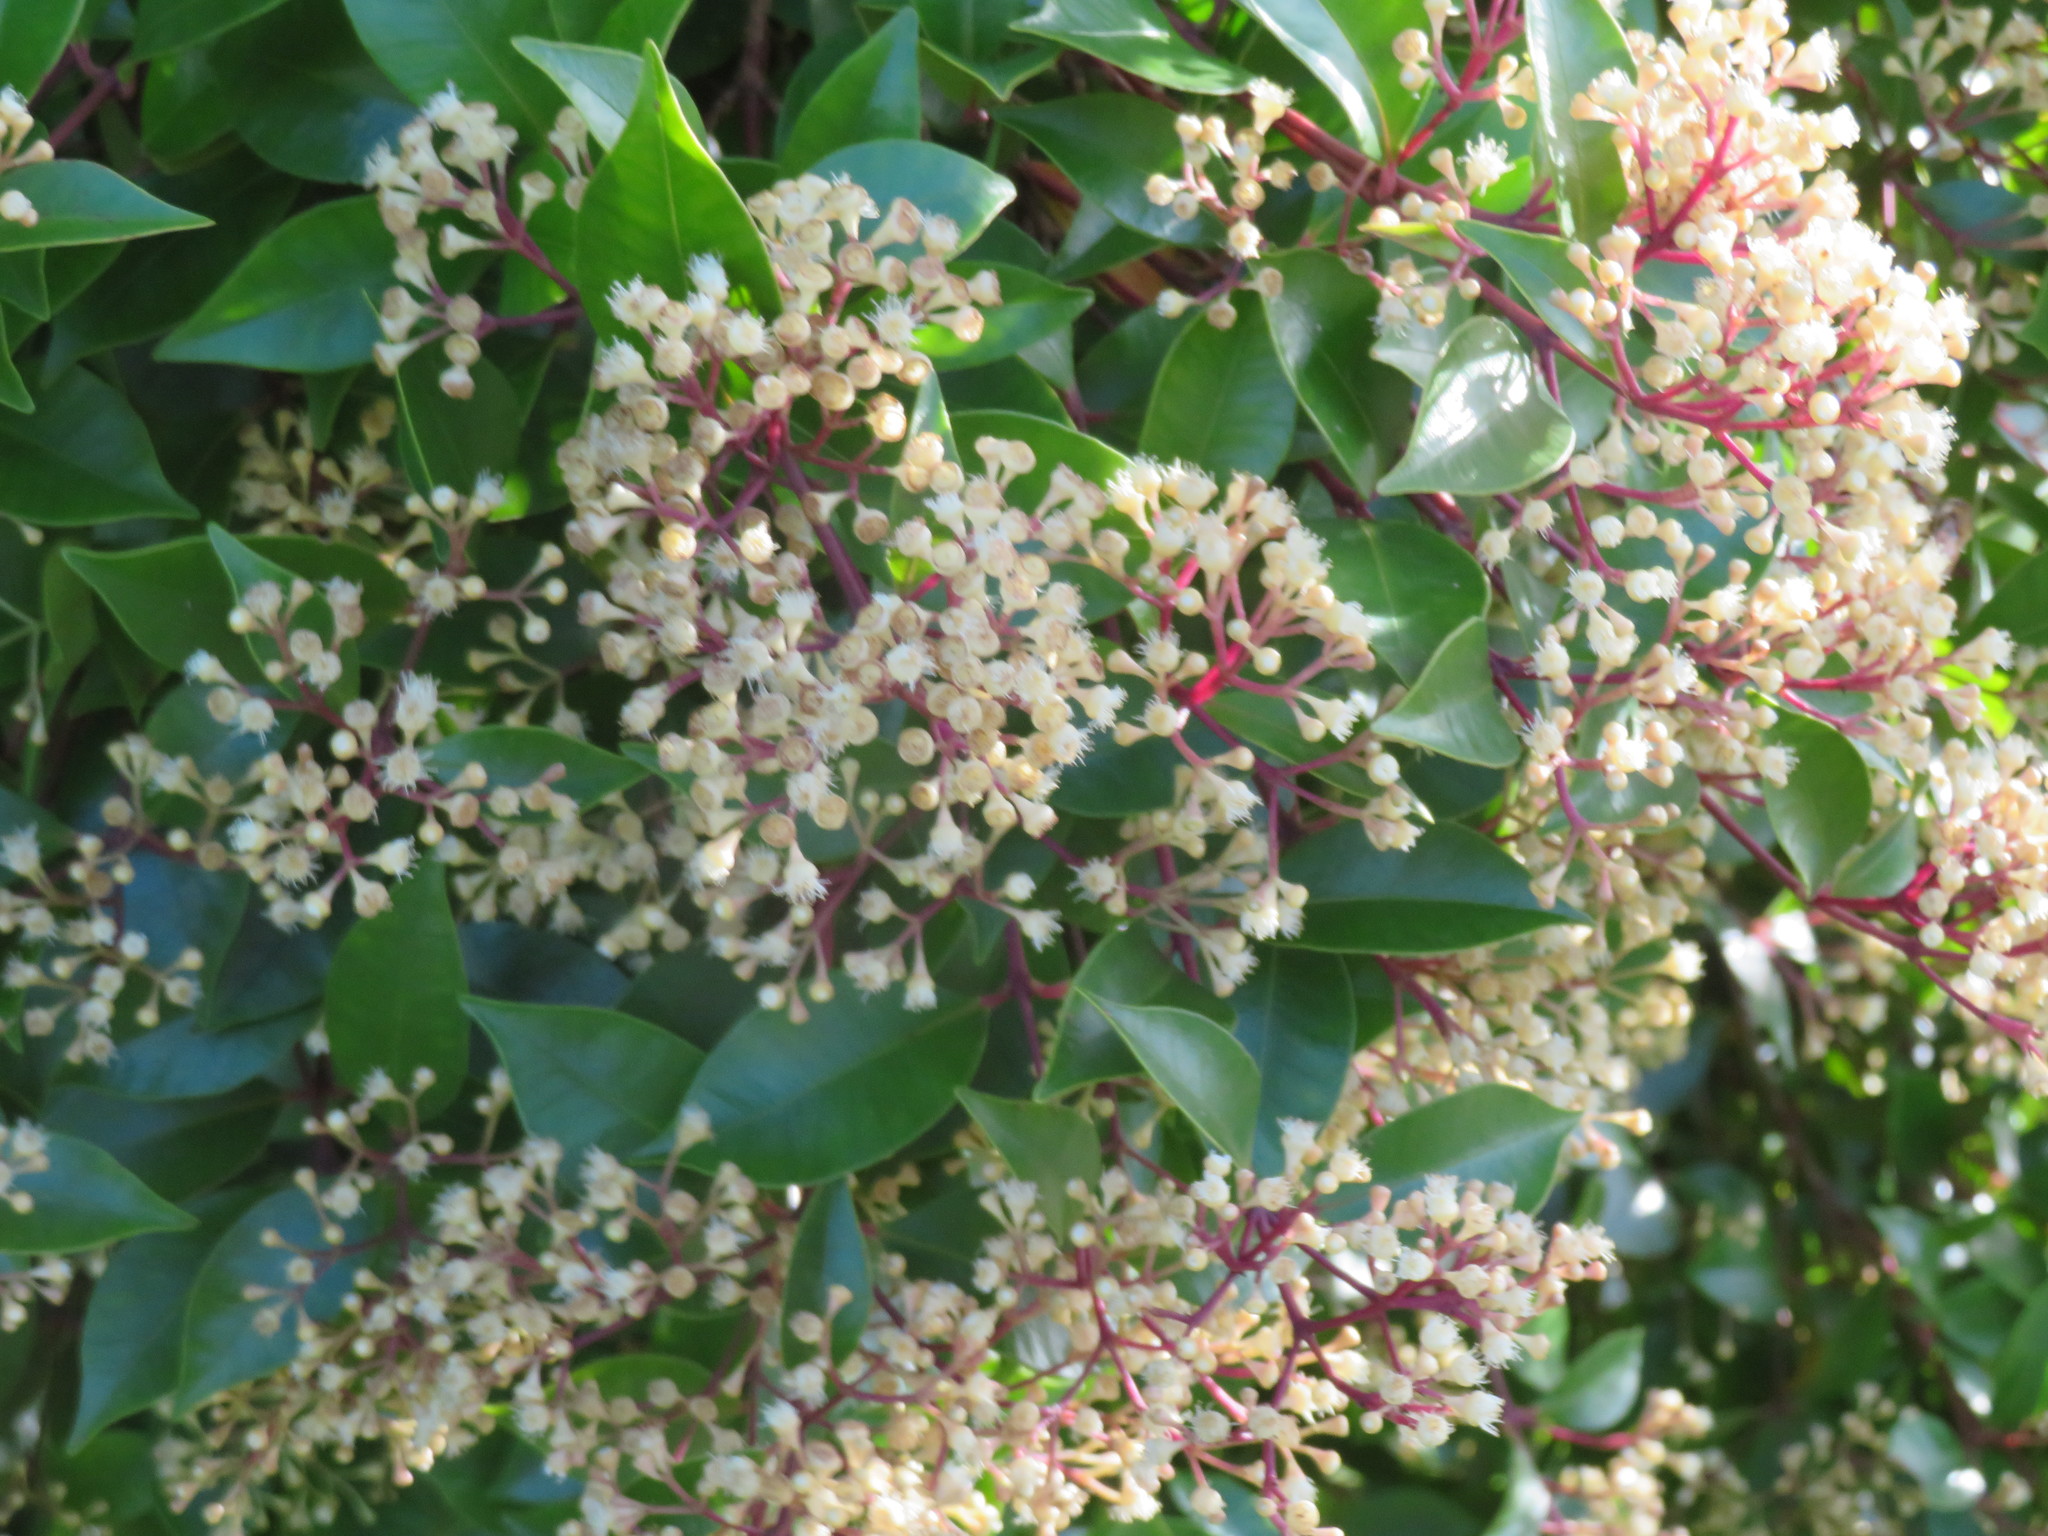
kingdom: Animalia
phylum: Arthropoda
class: Insecta
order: Hymenoptera
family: Apidae
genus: Apis
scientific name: Apis mellifera
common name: Honey bee
